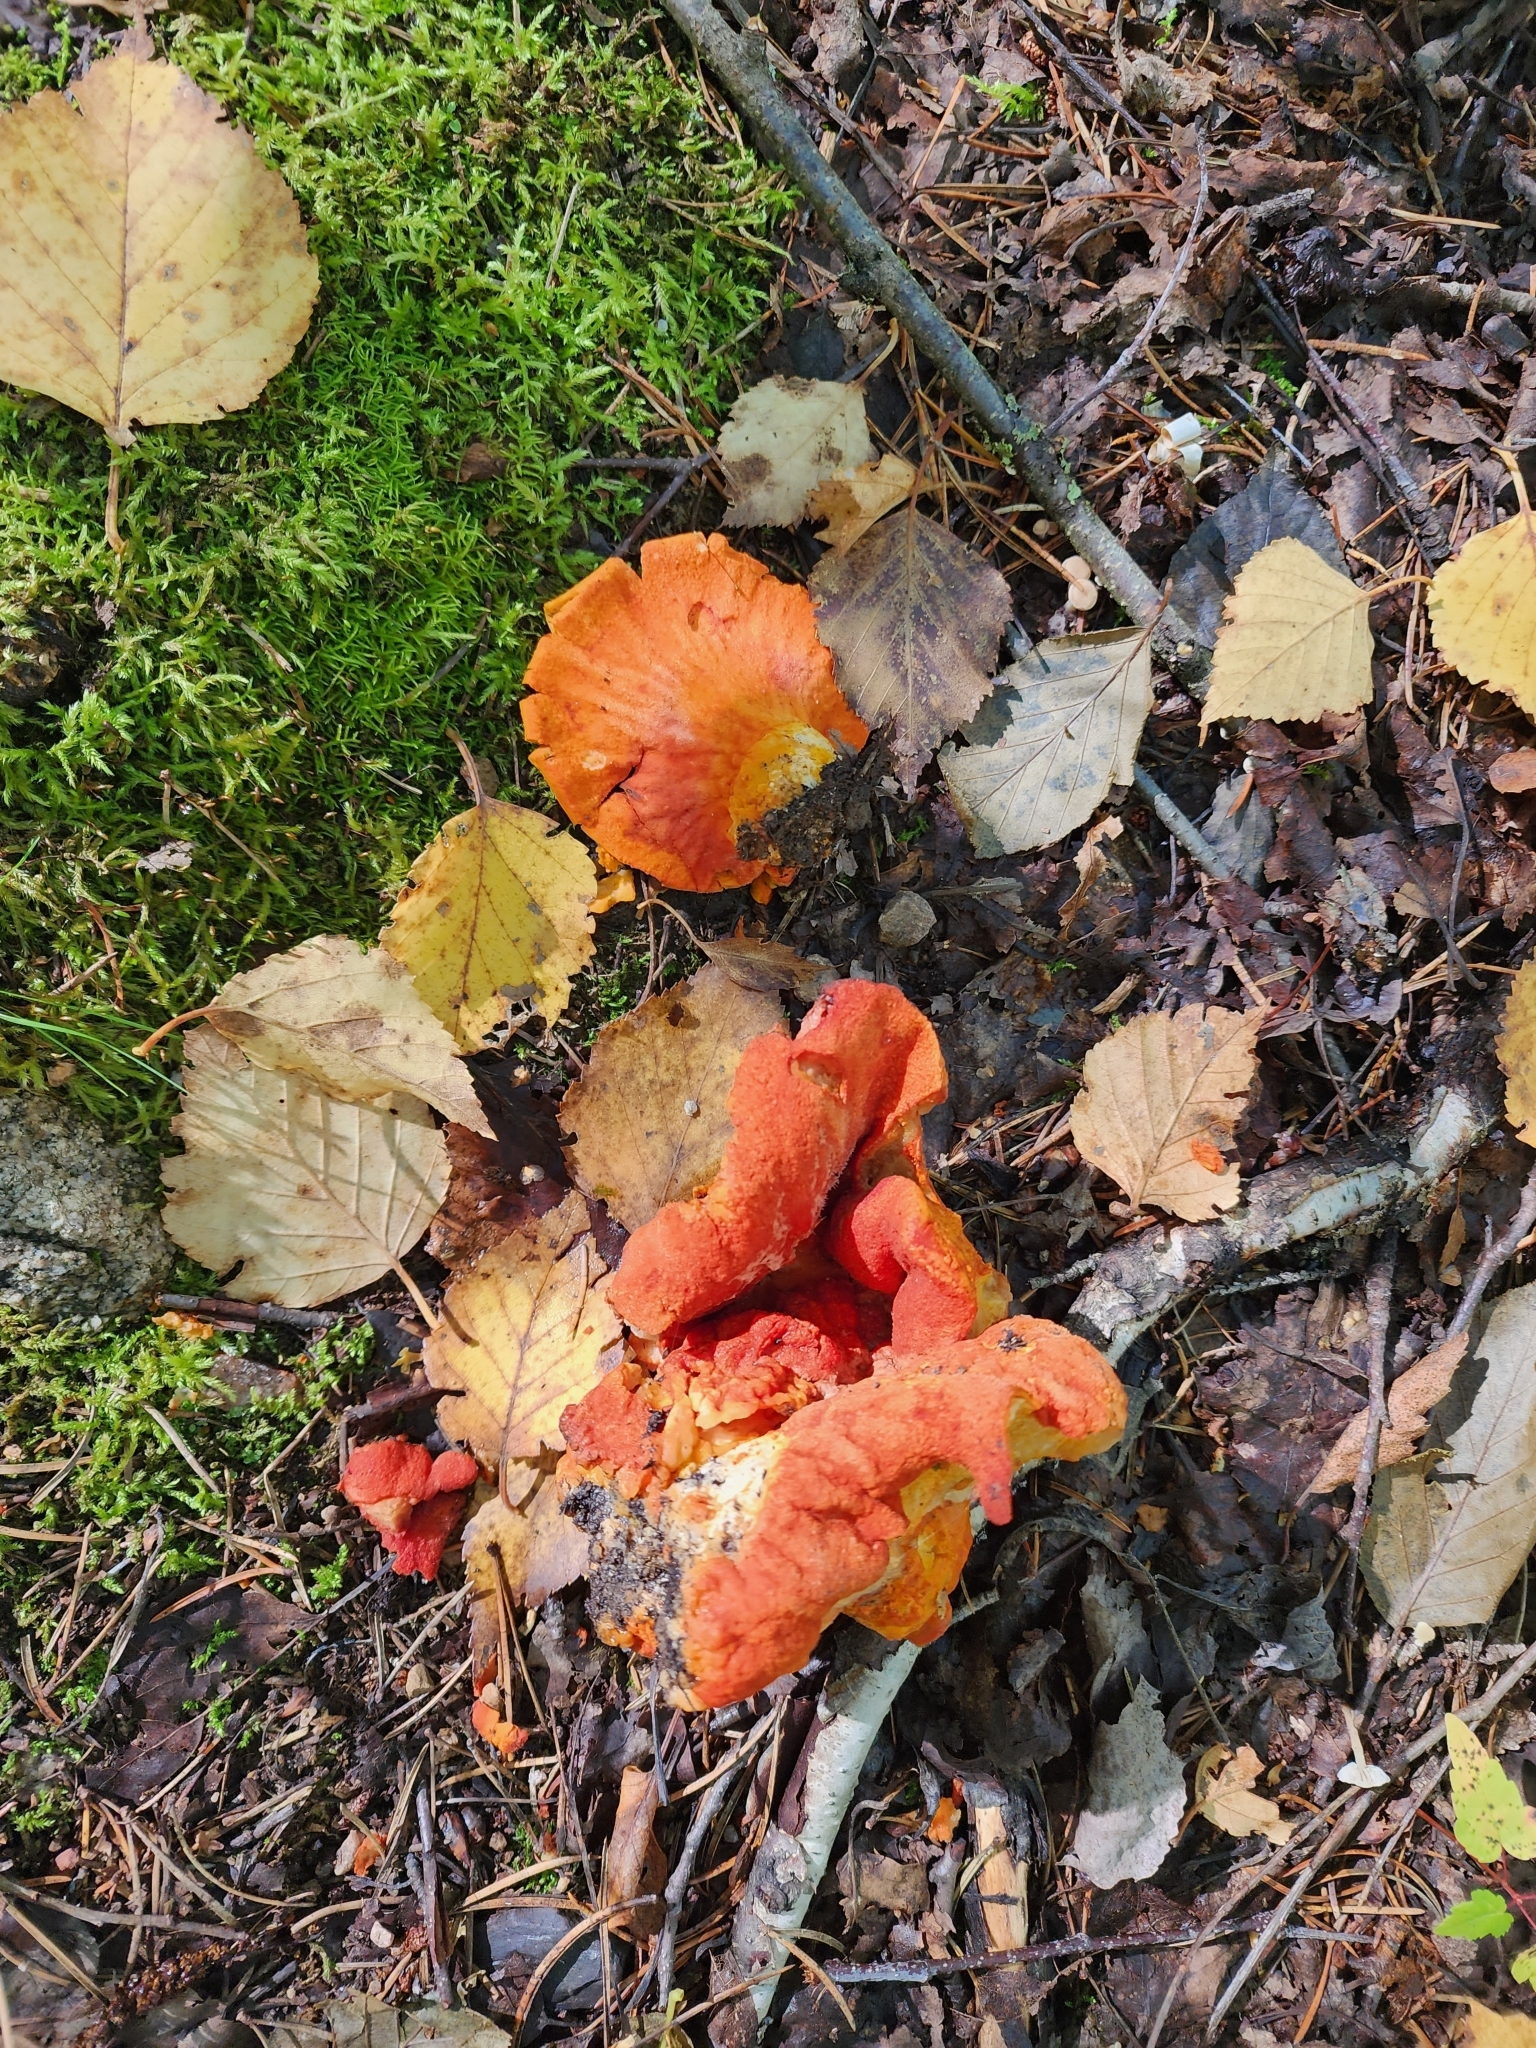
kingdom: Fungi
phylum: Ascomycota
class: Sordariomycetes
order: Hypocreales
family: Hypocreaceae
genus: Hypomyces
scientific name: Hypomyces lactifluorum
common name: Lobster mushroom
